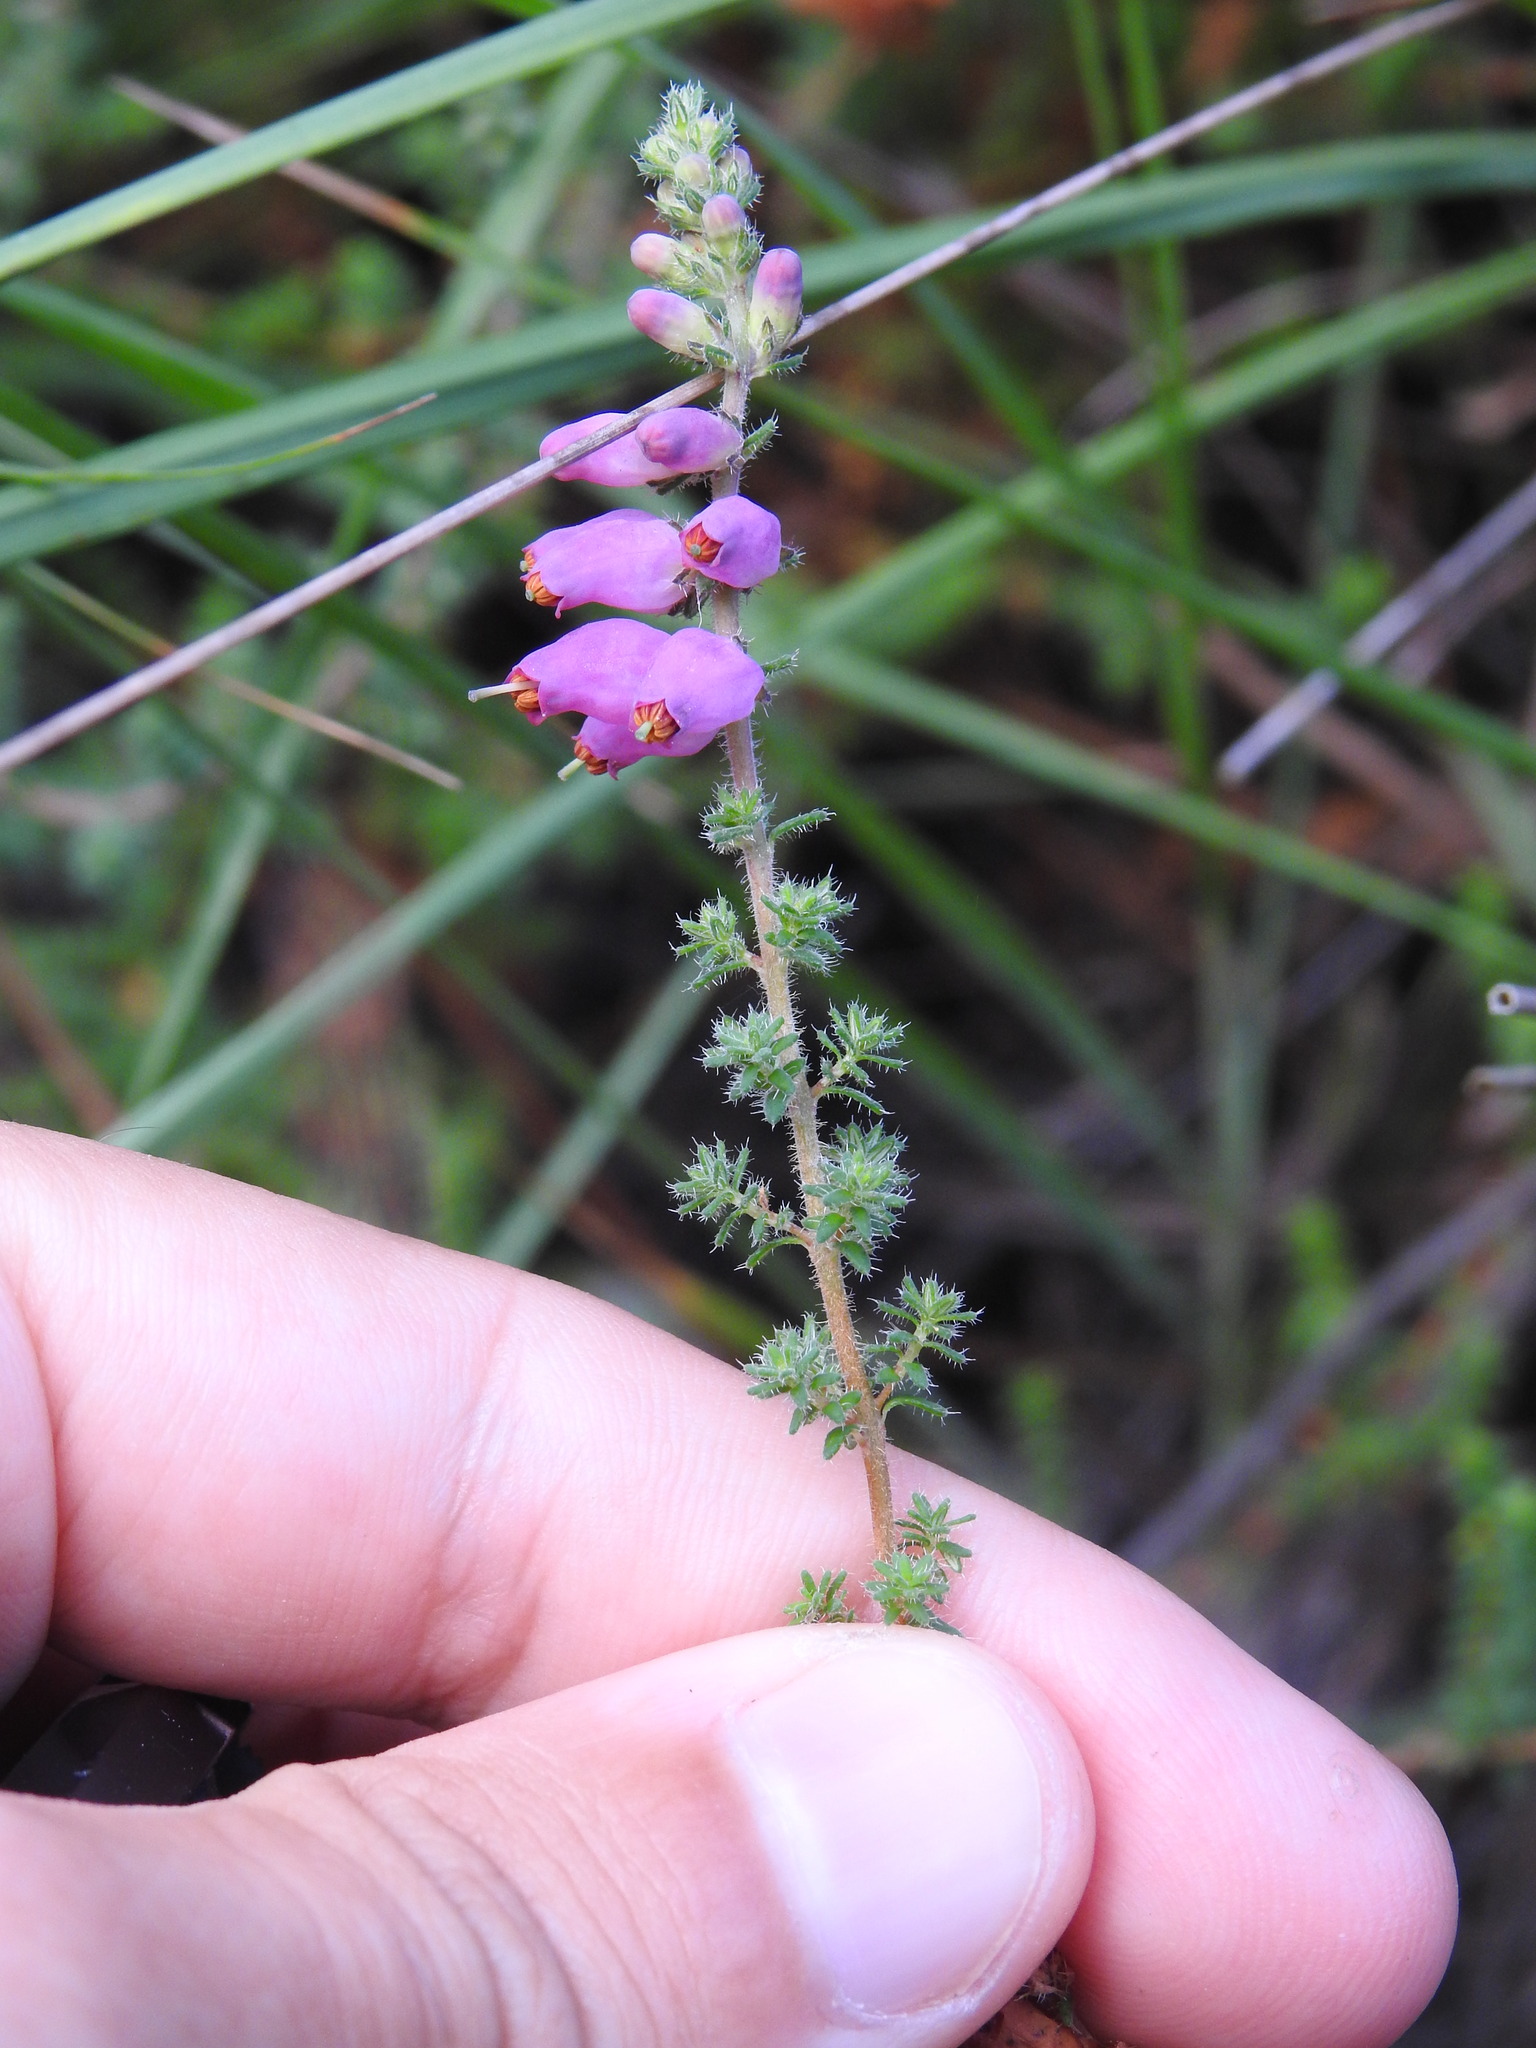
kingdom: Plantae
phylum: Tracheophyta
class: Magnoliopsida
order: Ericales
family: Ericaceae
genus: Erica
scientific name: Erica ciliaris
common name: Dorset heath
